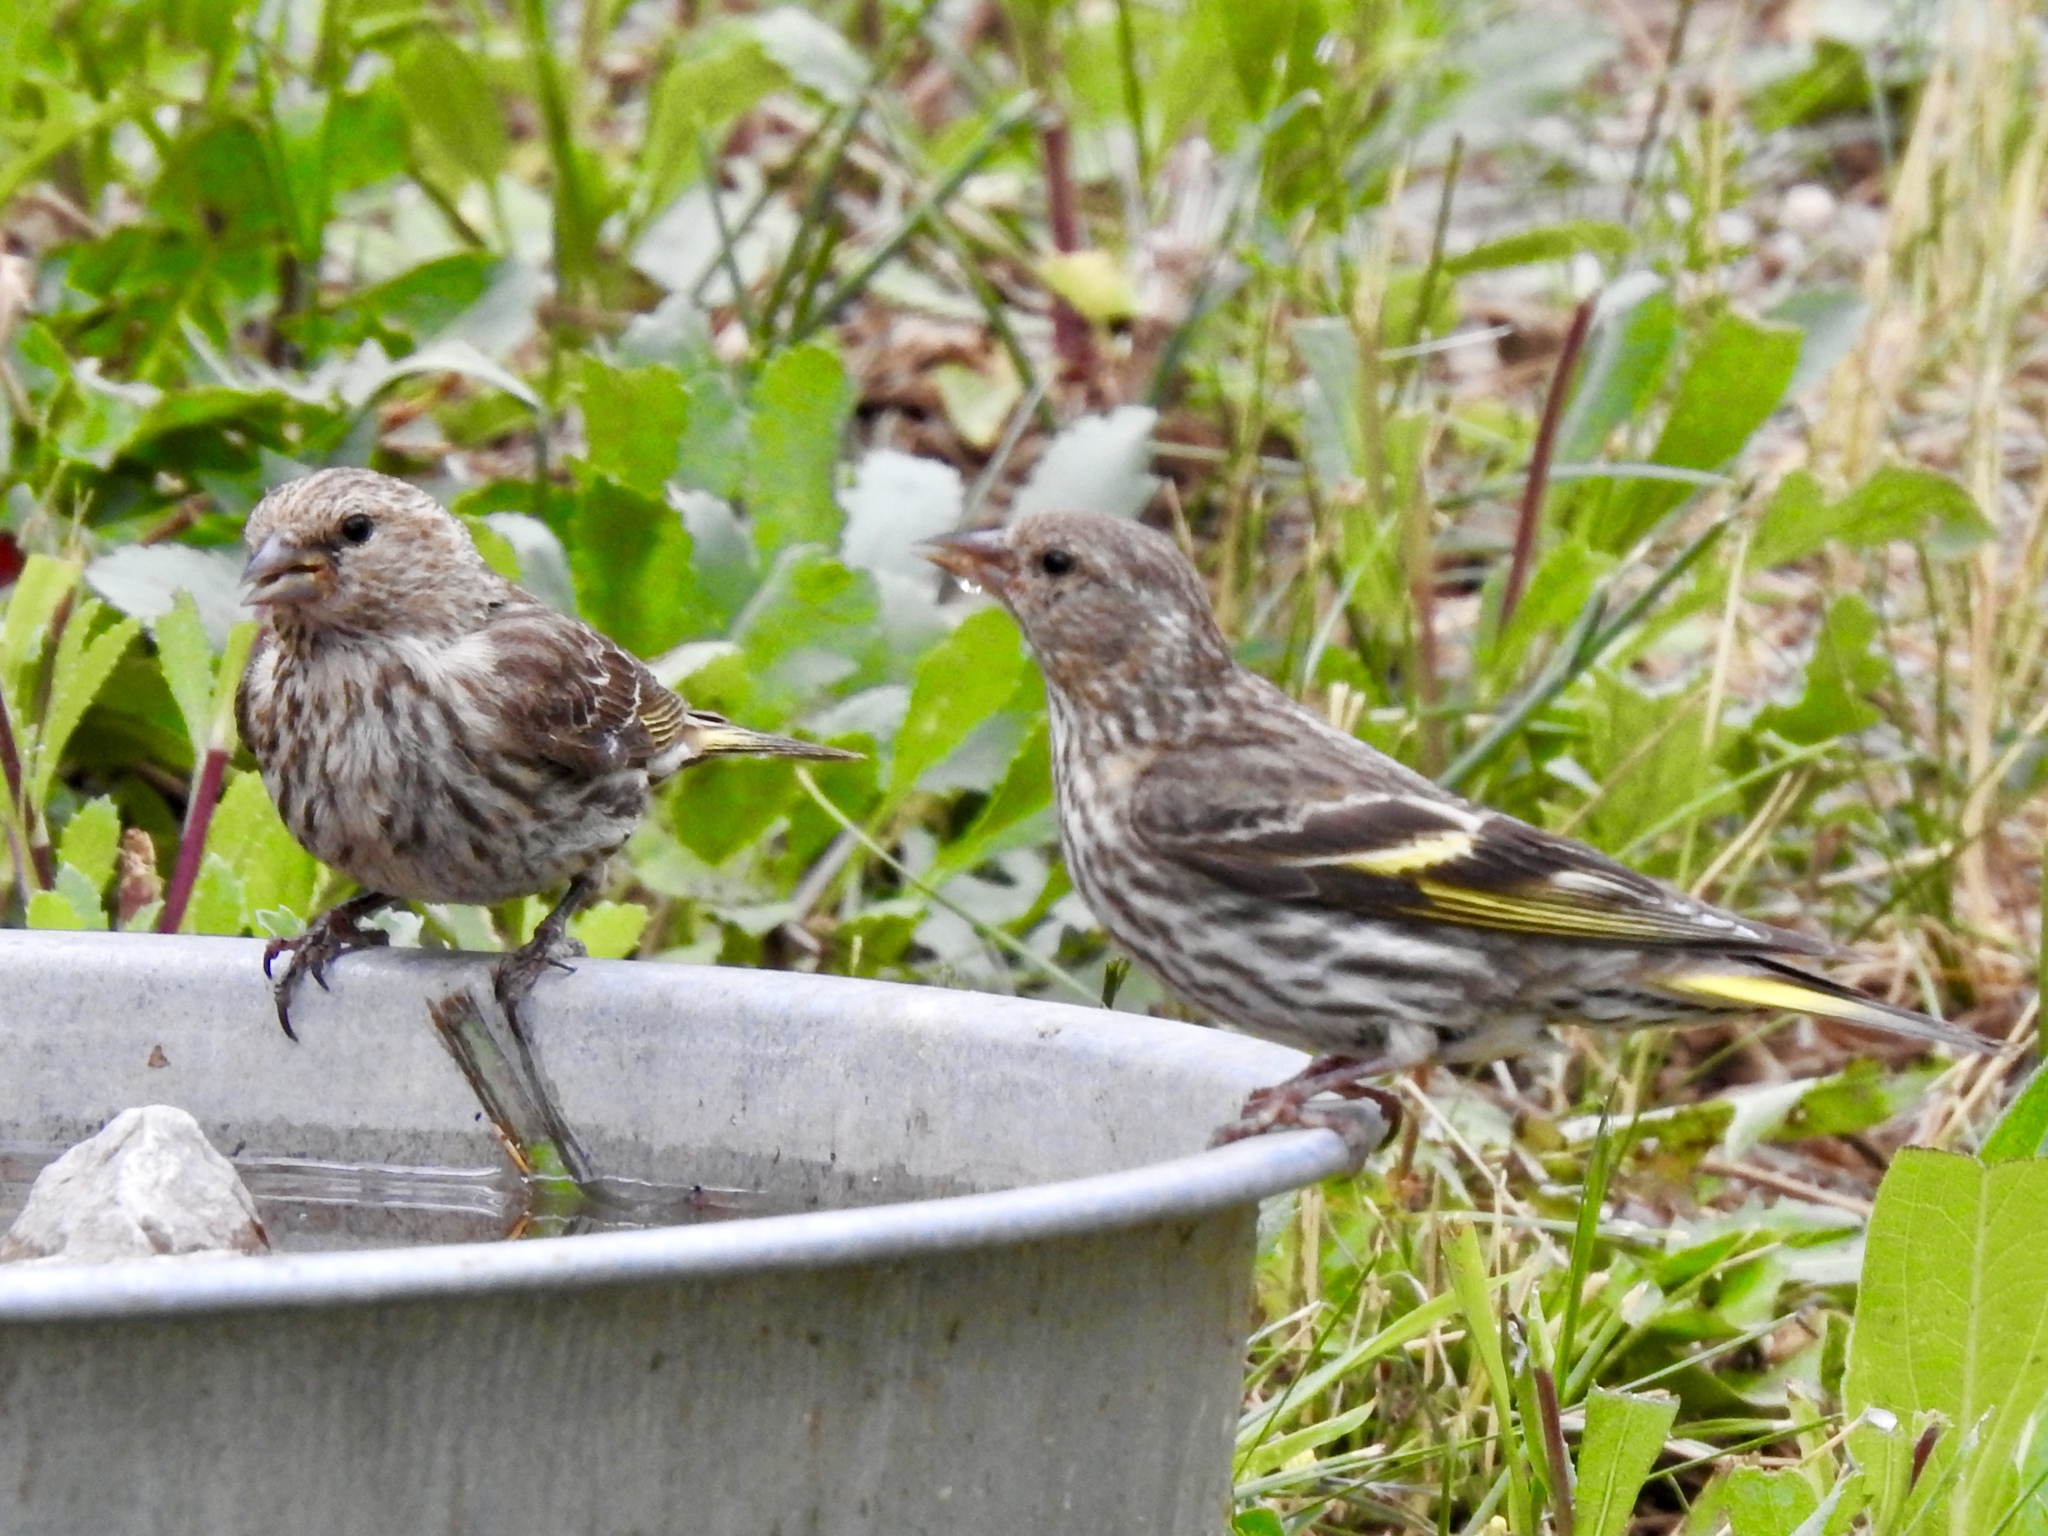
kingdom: Animalia
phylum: Chordata
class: Aves
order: Passeriformes
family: Fringillidae
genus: Spinus
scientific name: Spinus pinus
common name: Pine siskin
